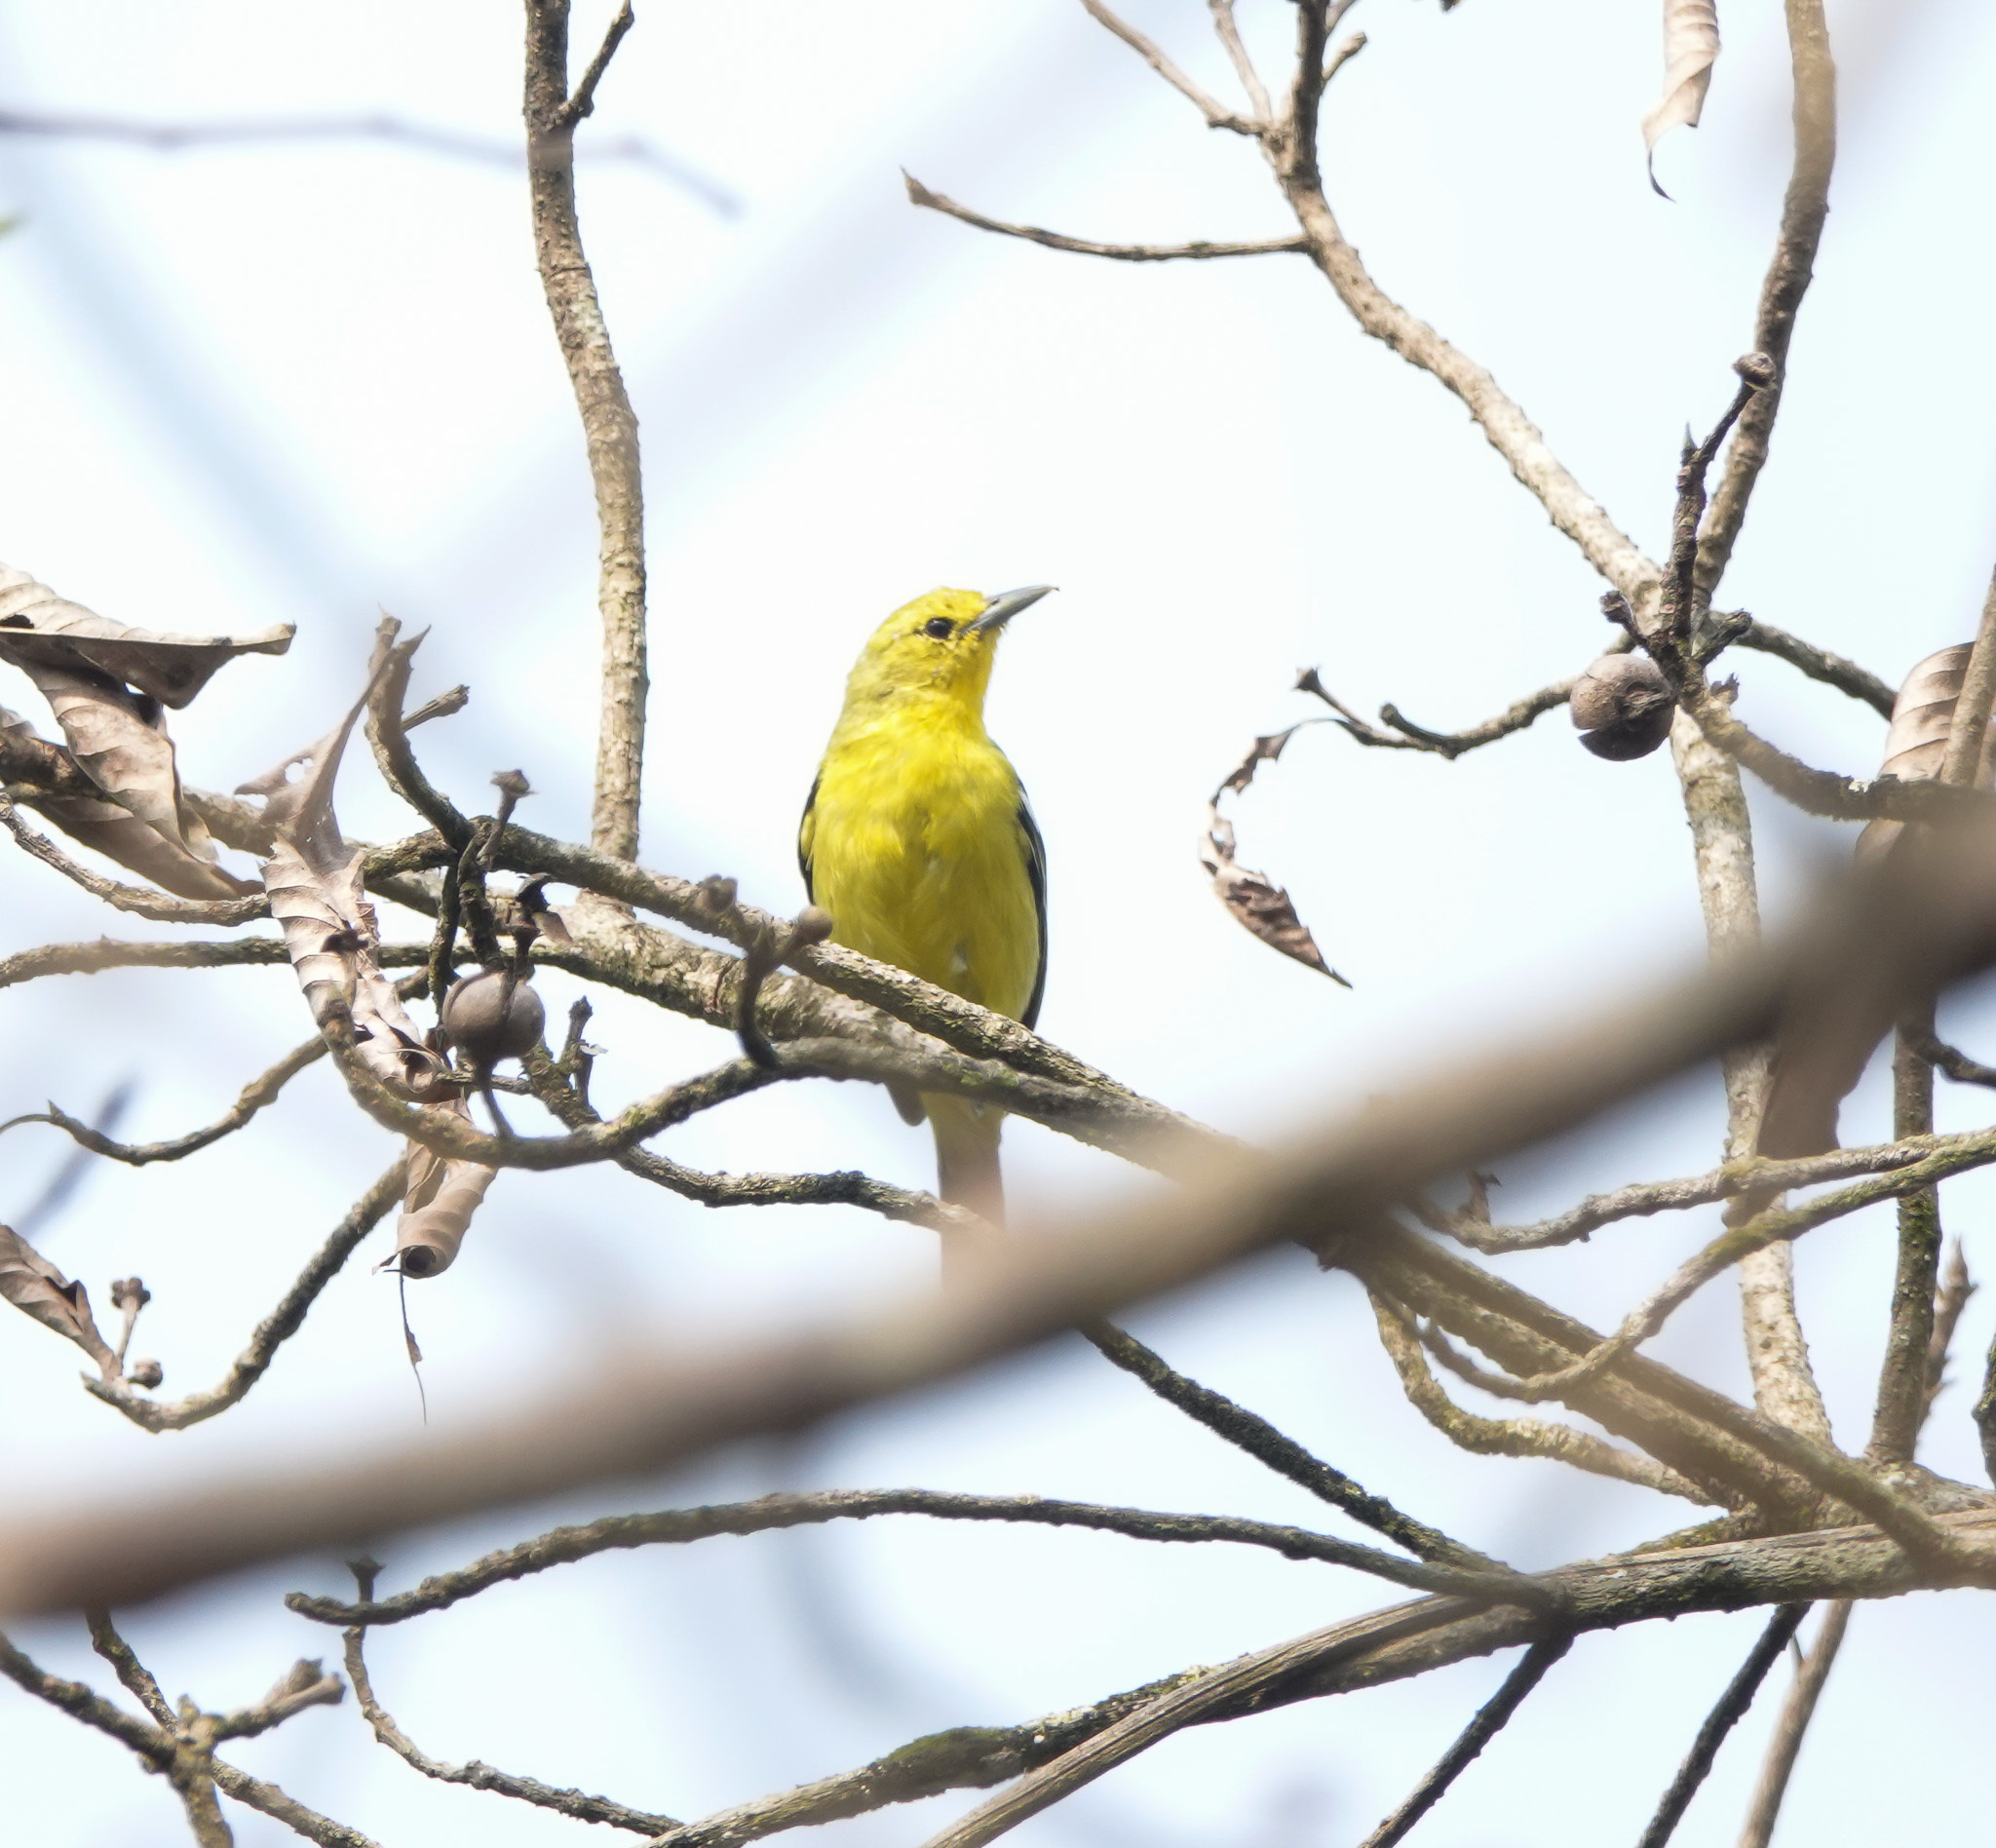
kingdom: Animalia
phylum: Chordata
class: Aves
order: Passeriformes
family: Aegithinidae
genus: Aegithina
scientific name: Aegithina tiphia
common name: Common iora
